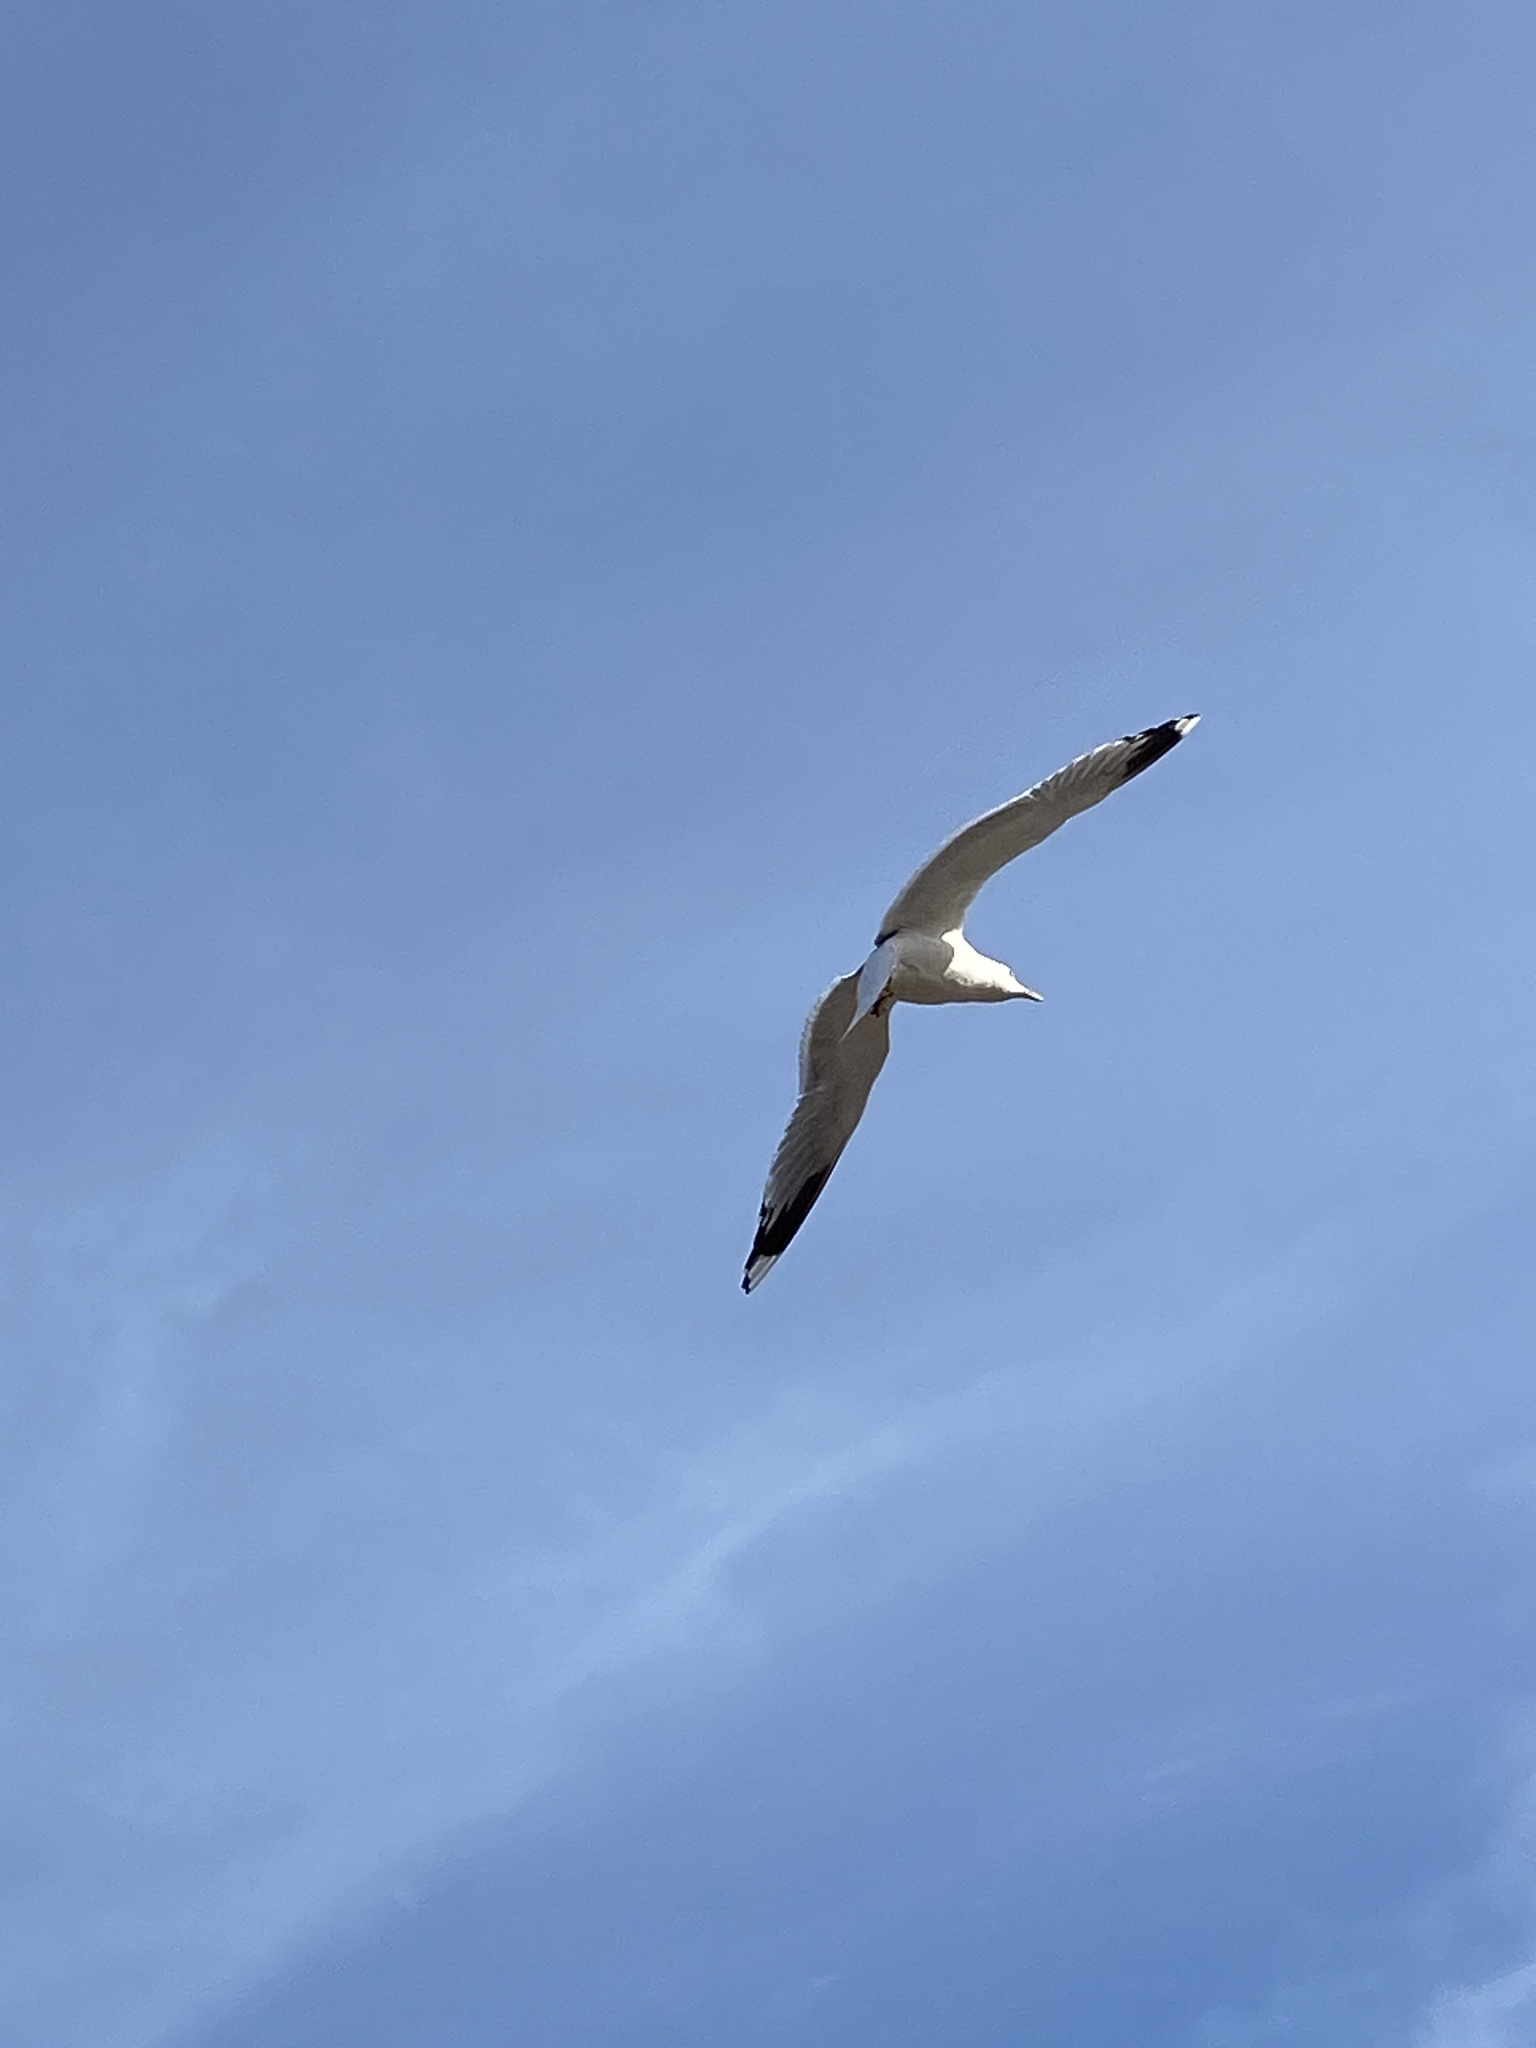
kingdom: Animalia
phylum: Chordata
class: Aves
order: Charadriiformes
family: Laridae
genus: Larus
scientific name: Larus canus
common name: Mew gull
